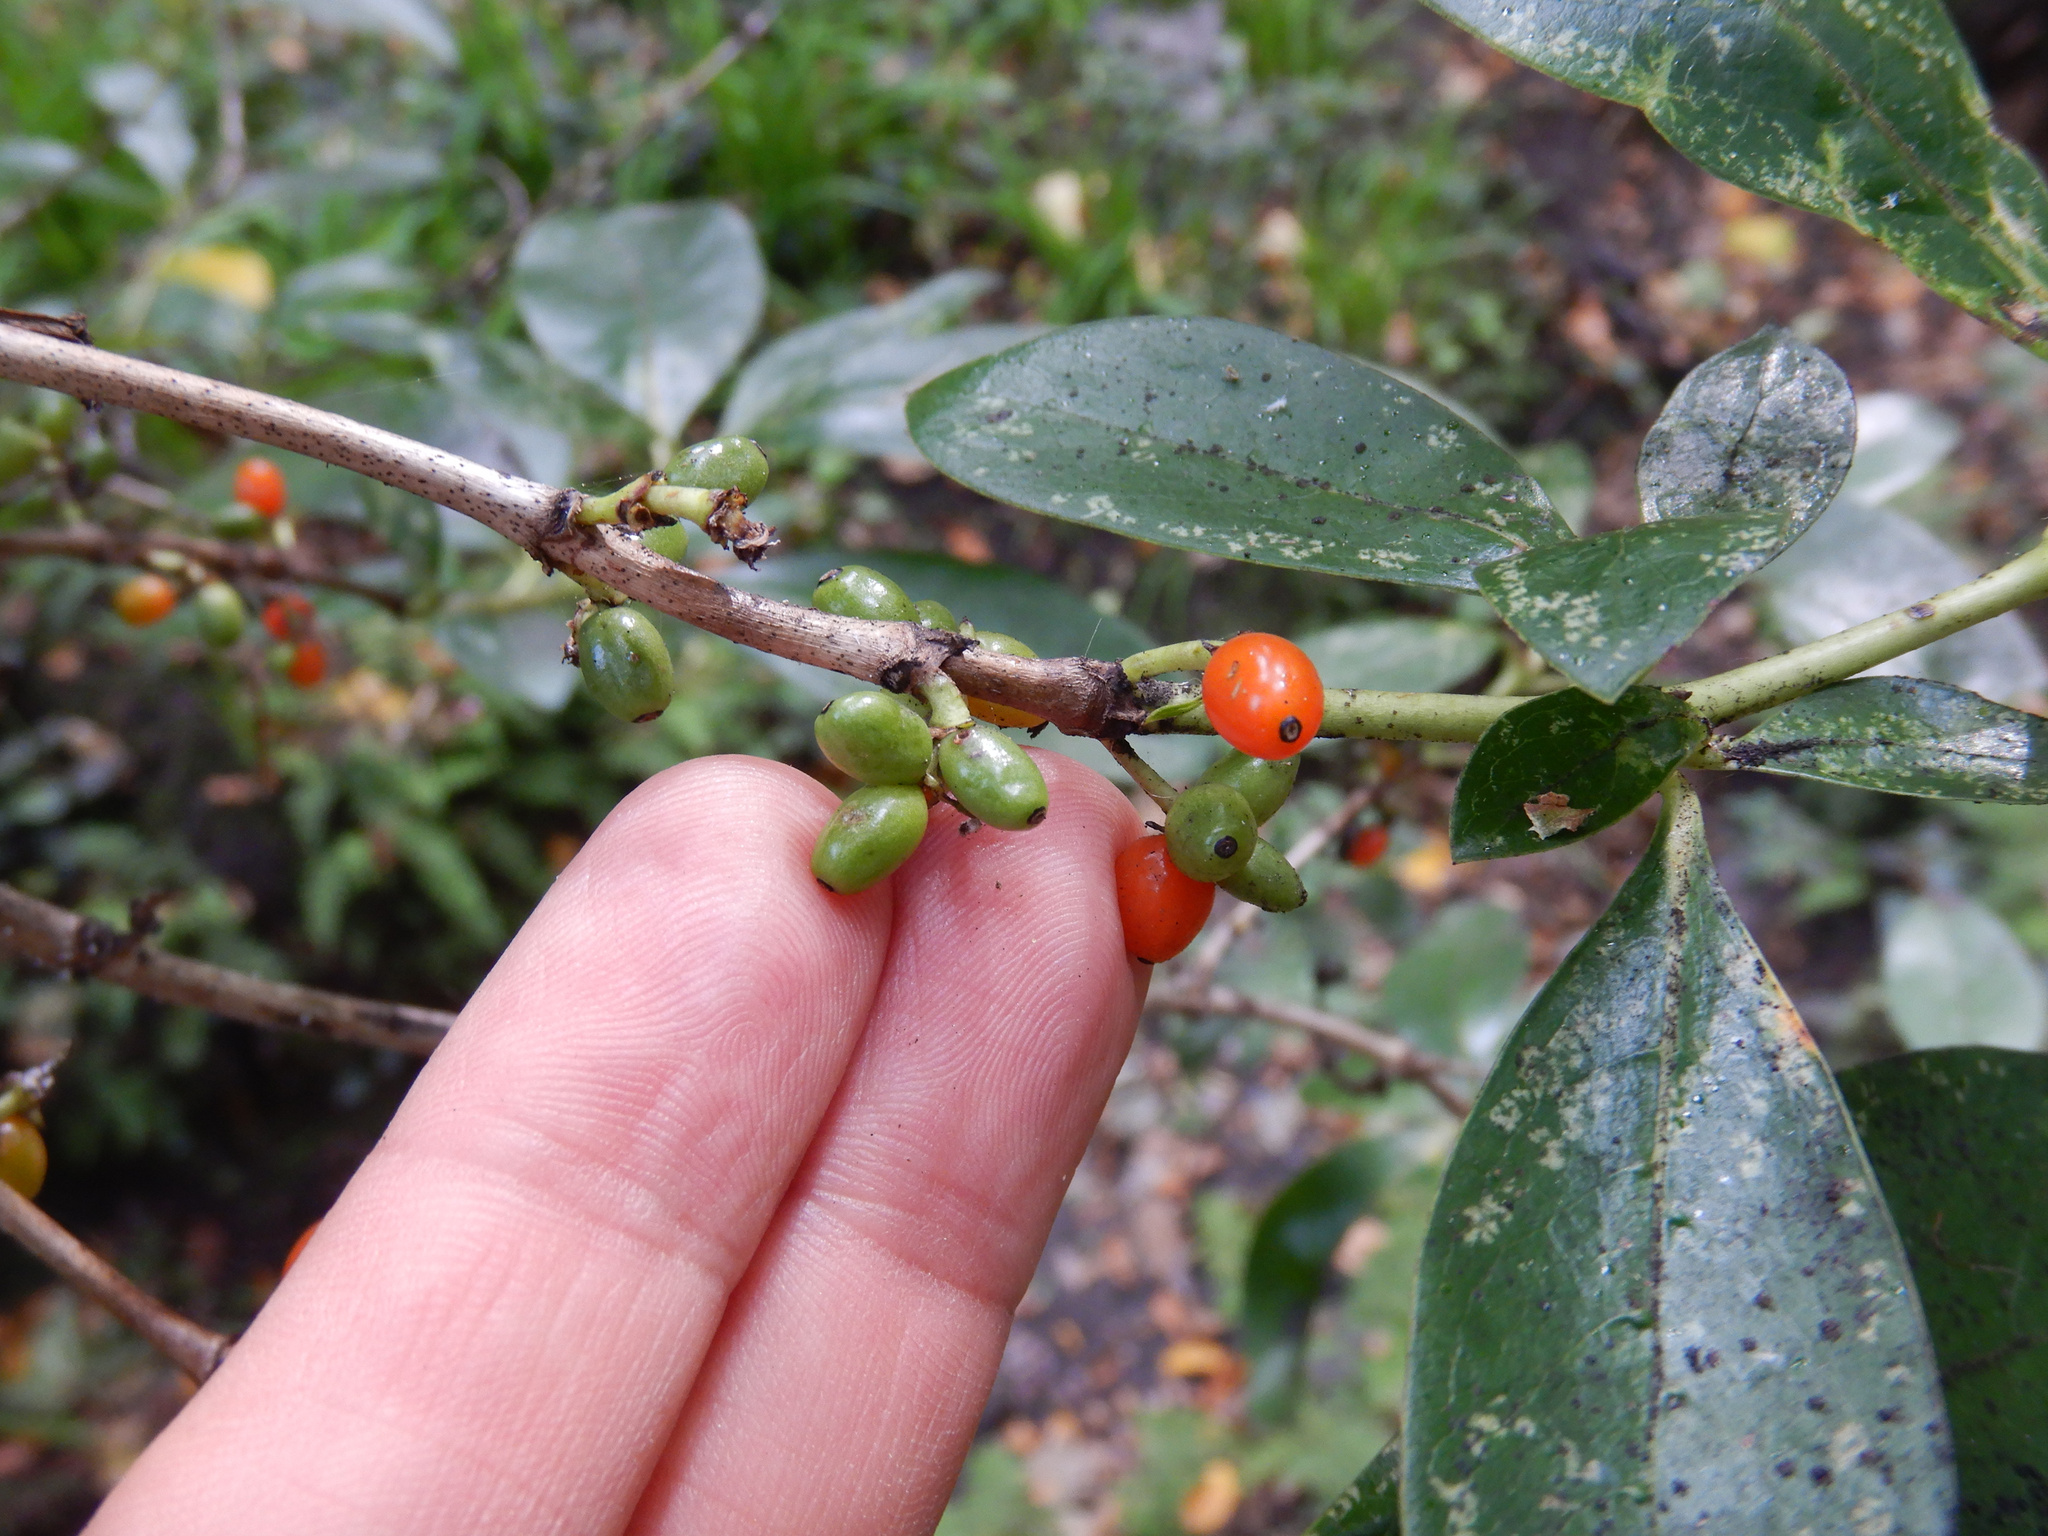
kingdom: Plantae
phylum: Tracheophyta
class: Magnoliopsida
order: Gentianales
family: Rubiaceae
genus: Coprosma
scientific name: Coprosma robusta
